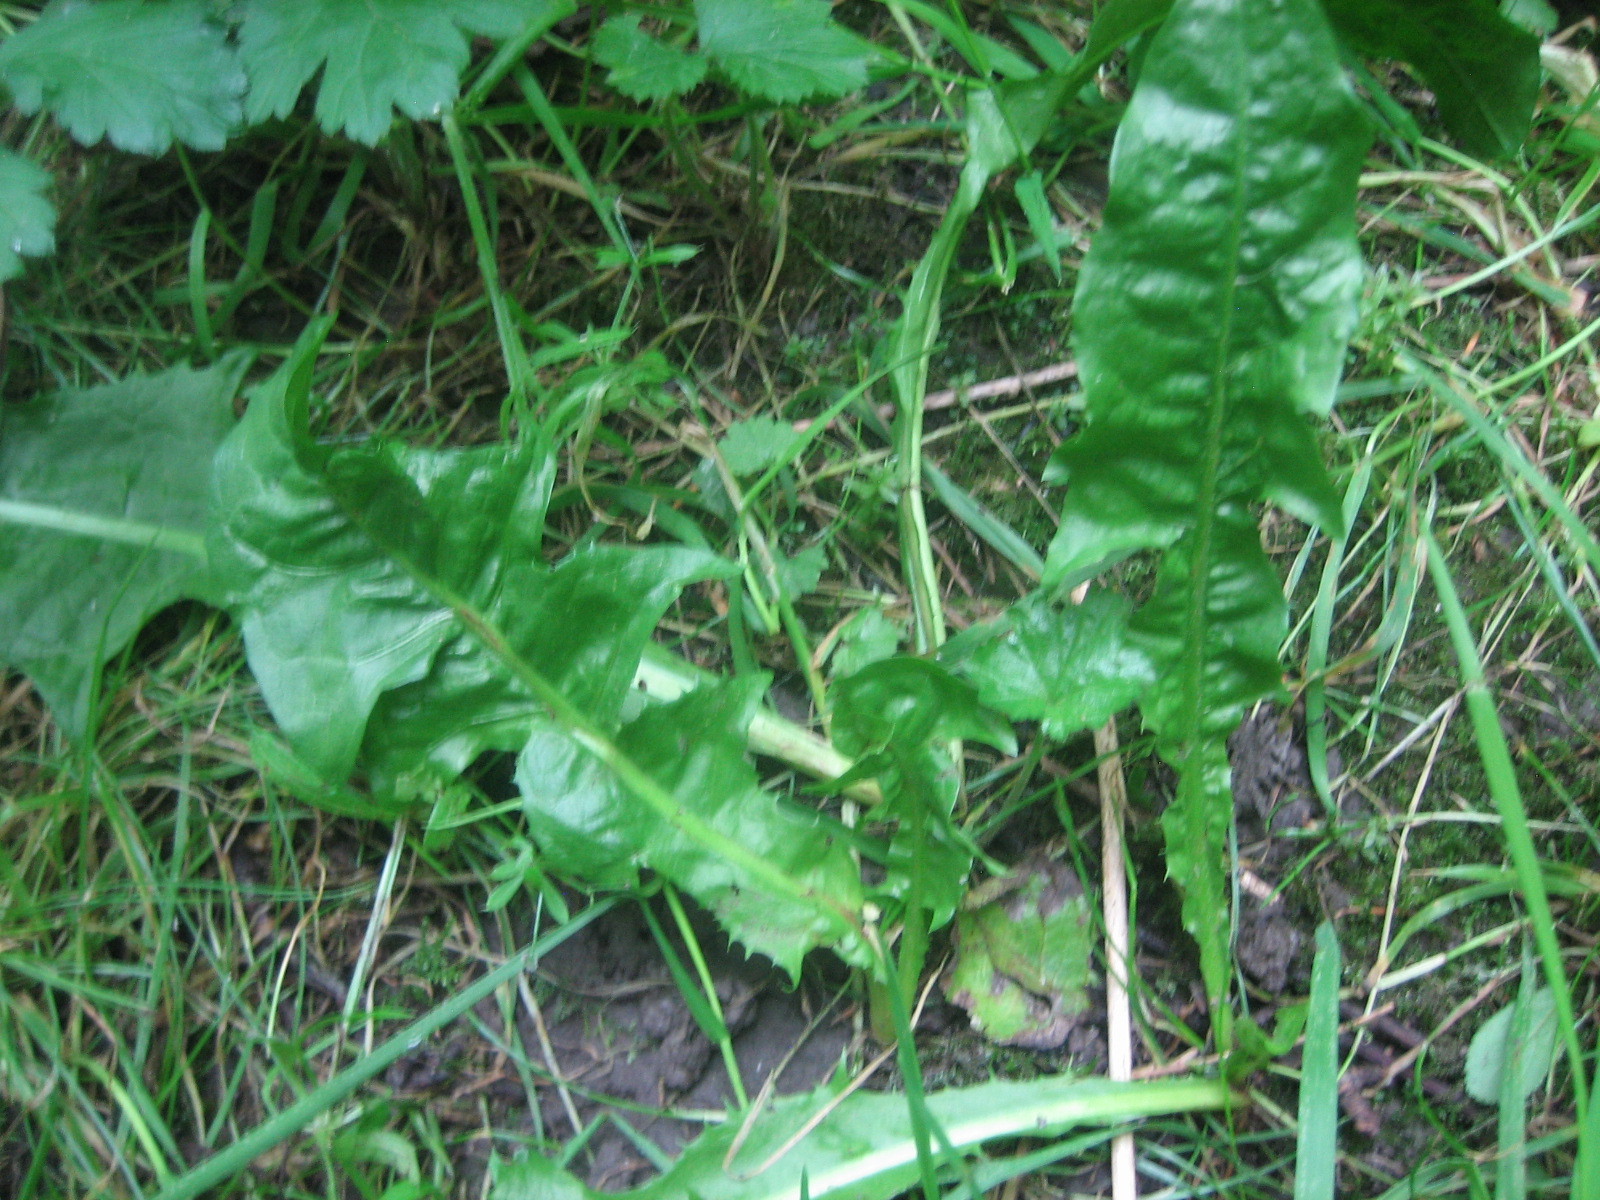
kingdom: Plantae
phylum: Tracheophyta
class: Magnoliopsida
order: Asterales
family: Asteraceae
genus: Taraxacum
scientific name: Taraxacum officinale
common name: Common dandelion
